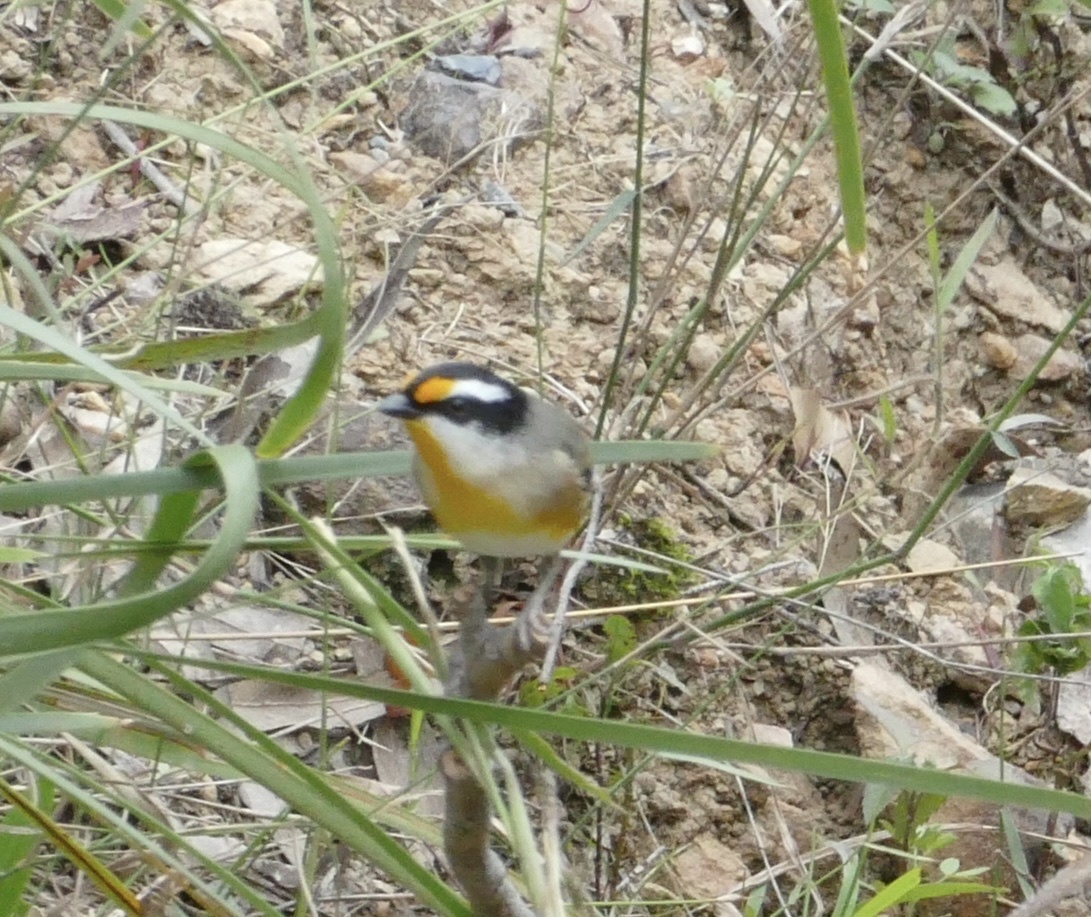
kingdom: Animalia
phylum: Chordata
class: Aves
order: Passeriformes
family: Pardalotidae
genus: Pardalotus
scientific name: Pardalotus striatus
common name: Striated pardalote
